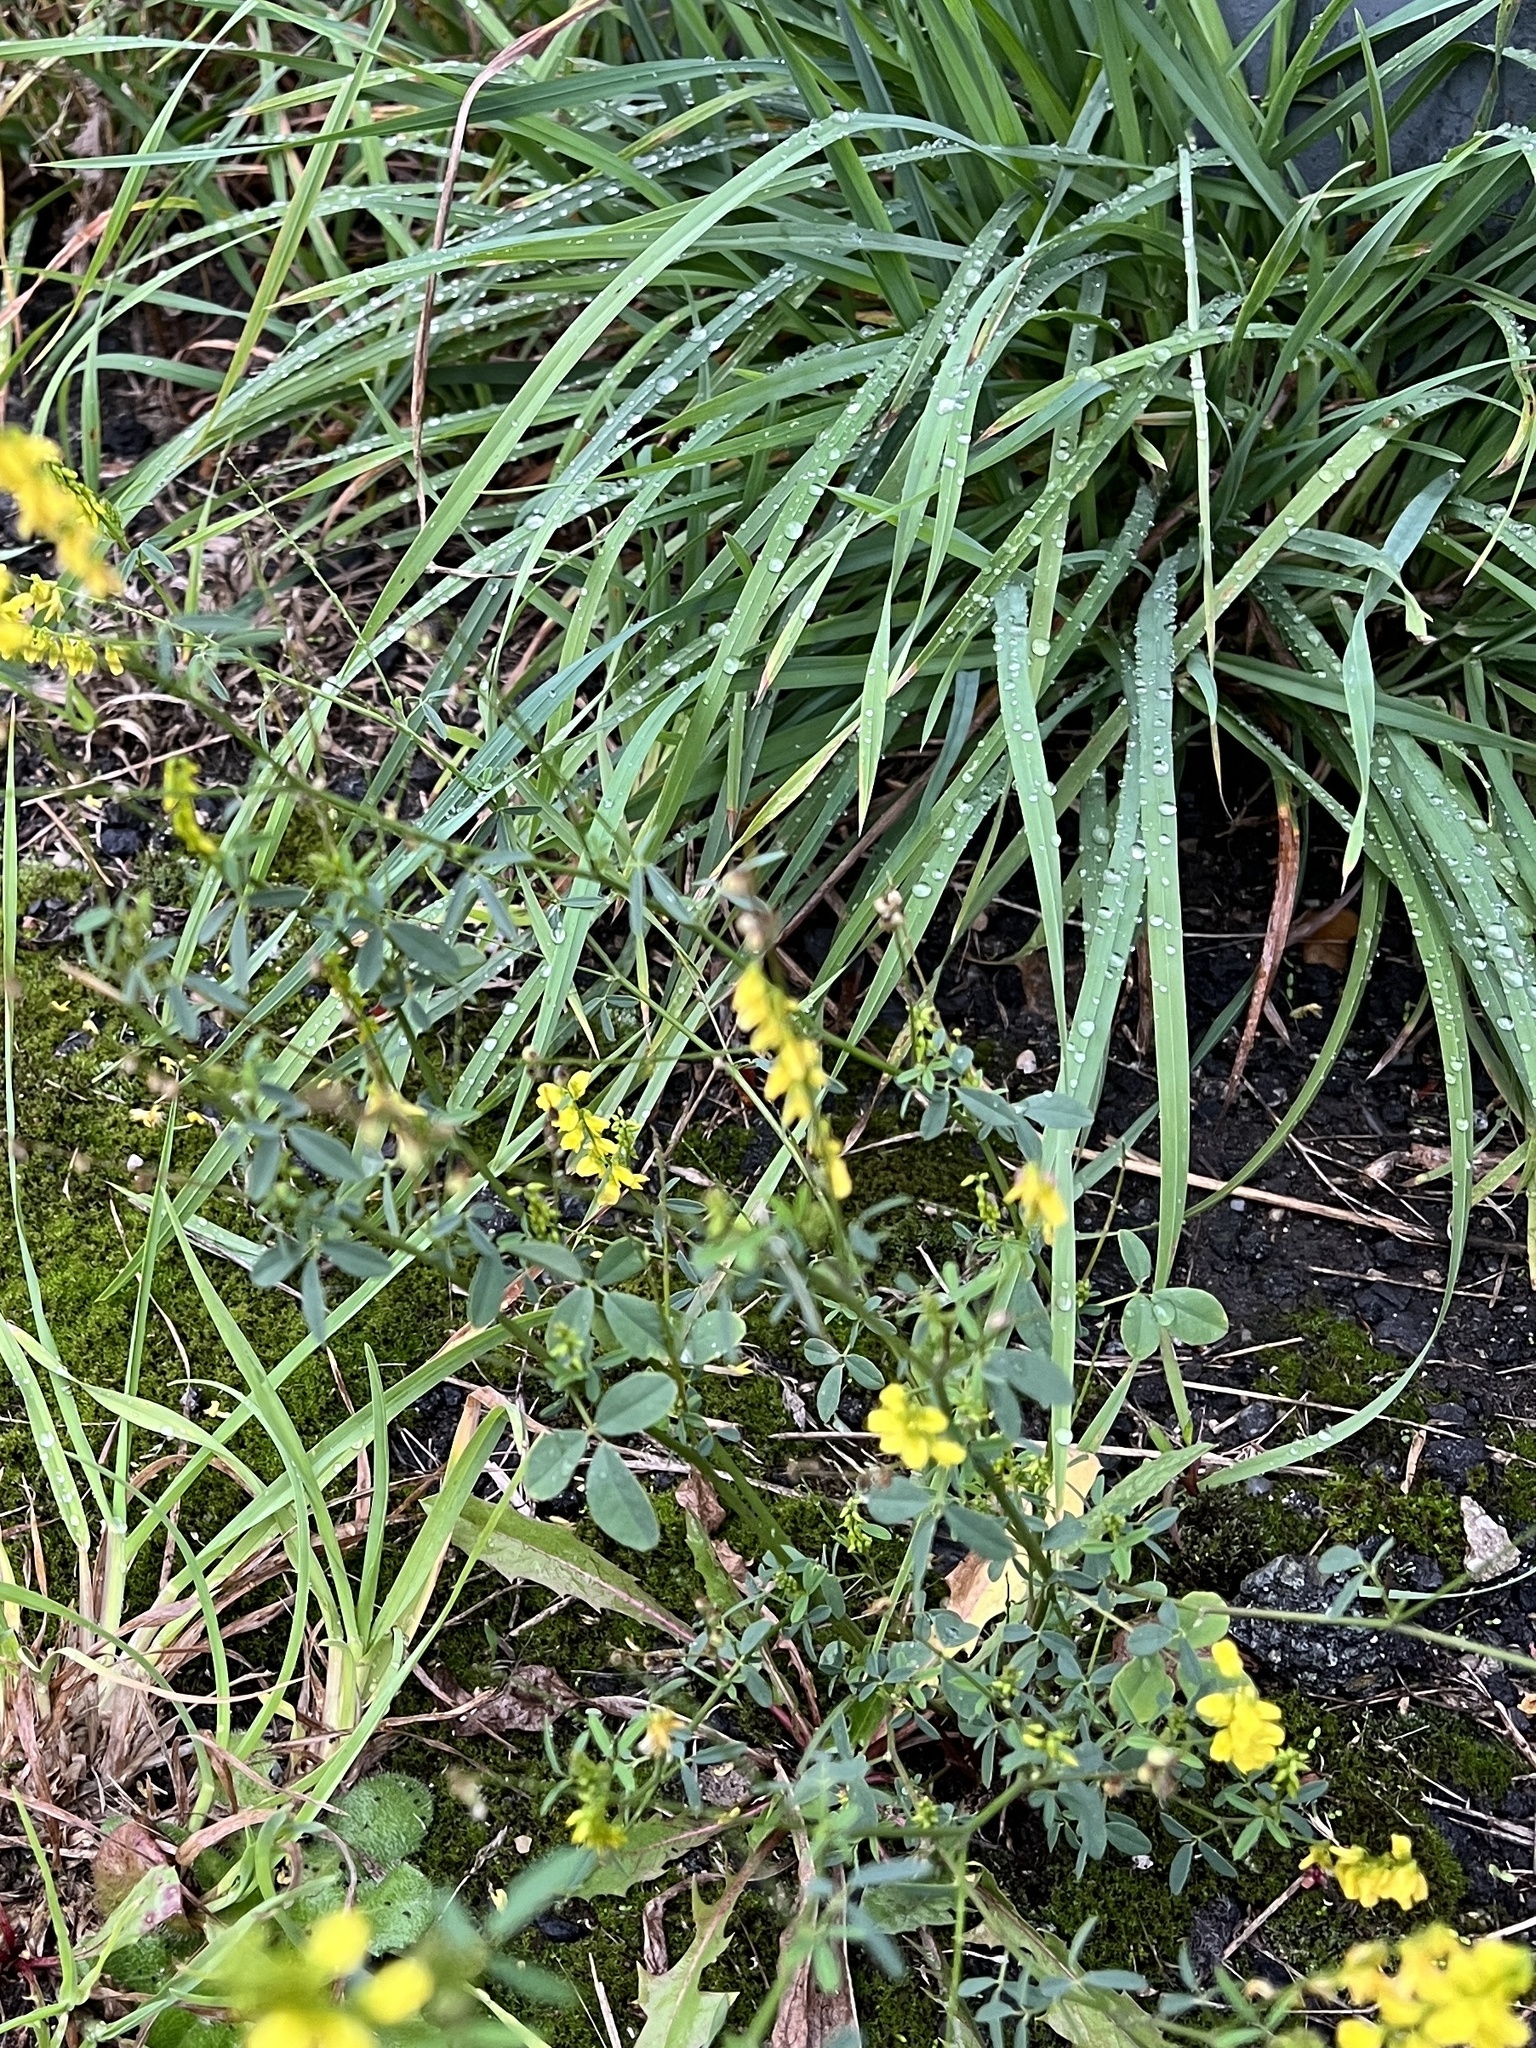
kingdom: Plantae
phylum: Tracheophyta
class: Magnoliopsida
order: Fabales
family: Fabaceae
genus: Melilotus
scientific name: Melilotus officinalis
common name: Sweetclover
